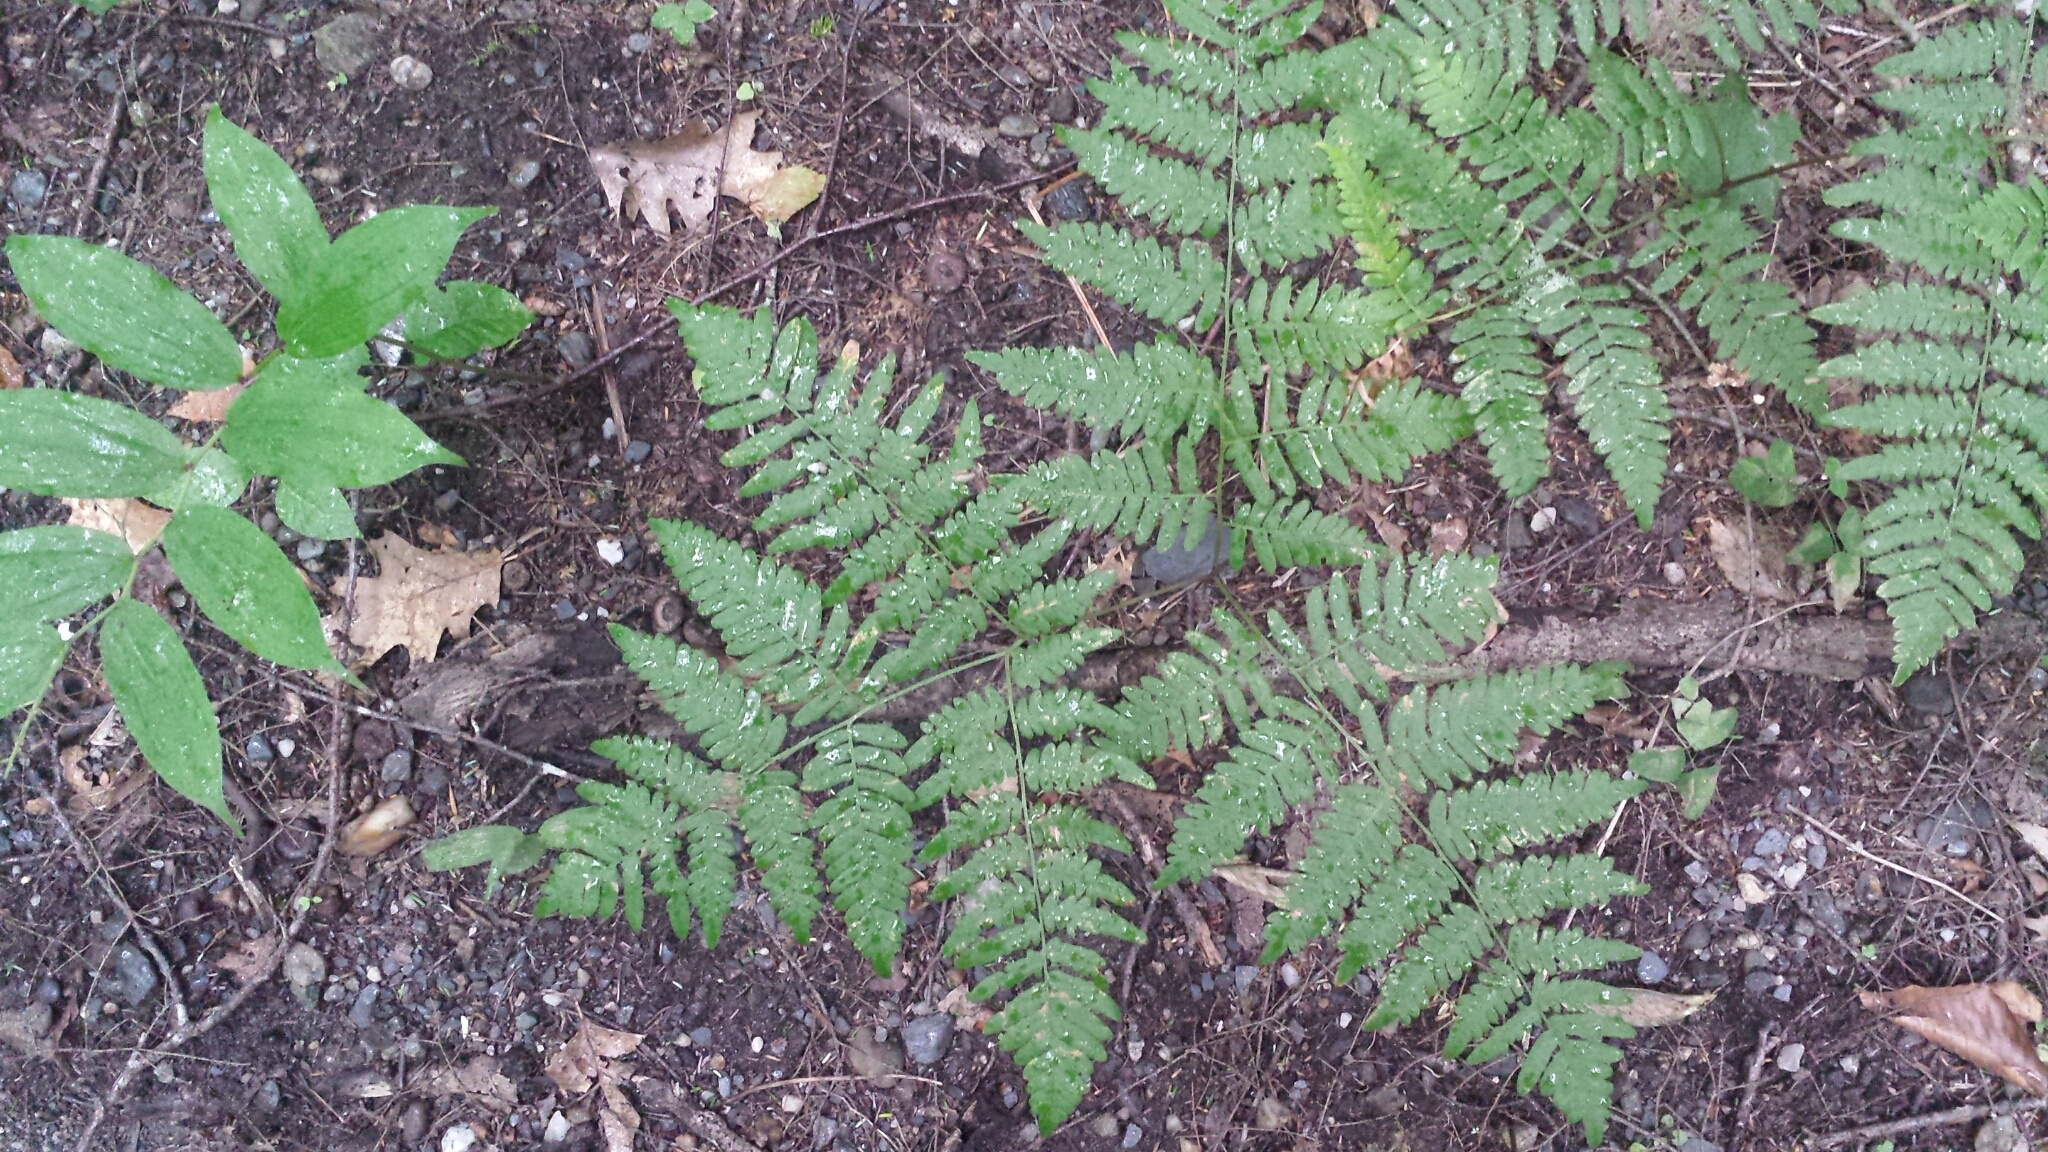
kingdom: Plantae
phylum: Tracheophyta
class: Polypodiopsida
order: Polypodiales
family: Dennstaedtiaceae
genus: Pteridium
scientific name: Pteridium aquilinum
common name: Bracken
